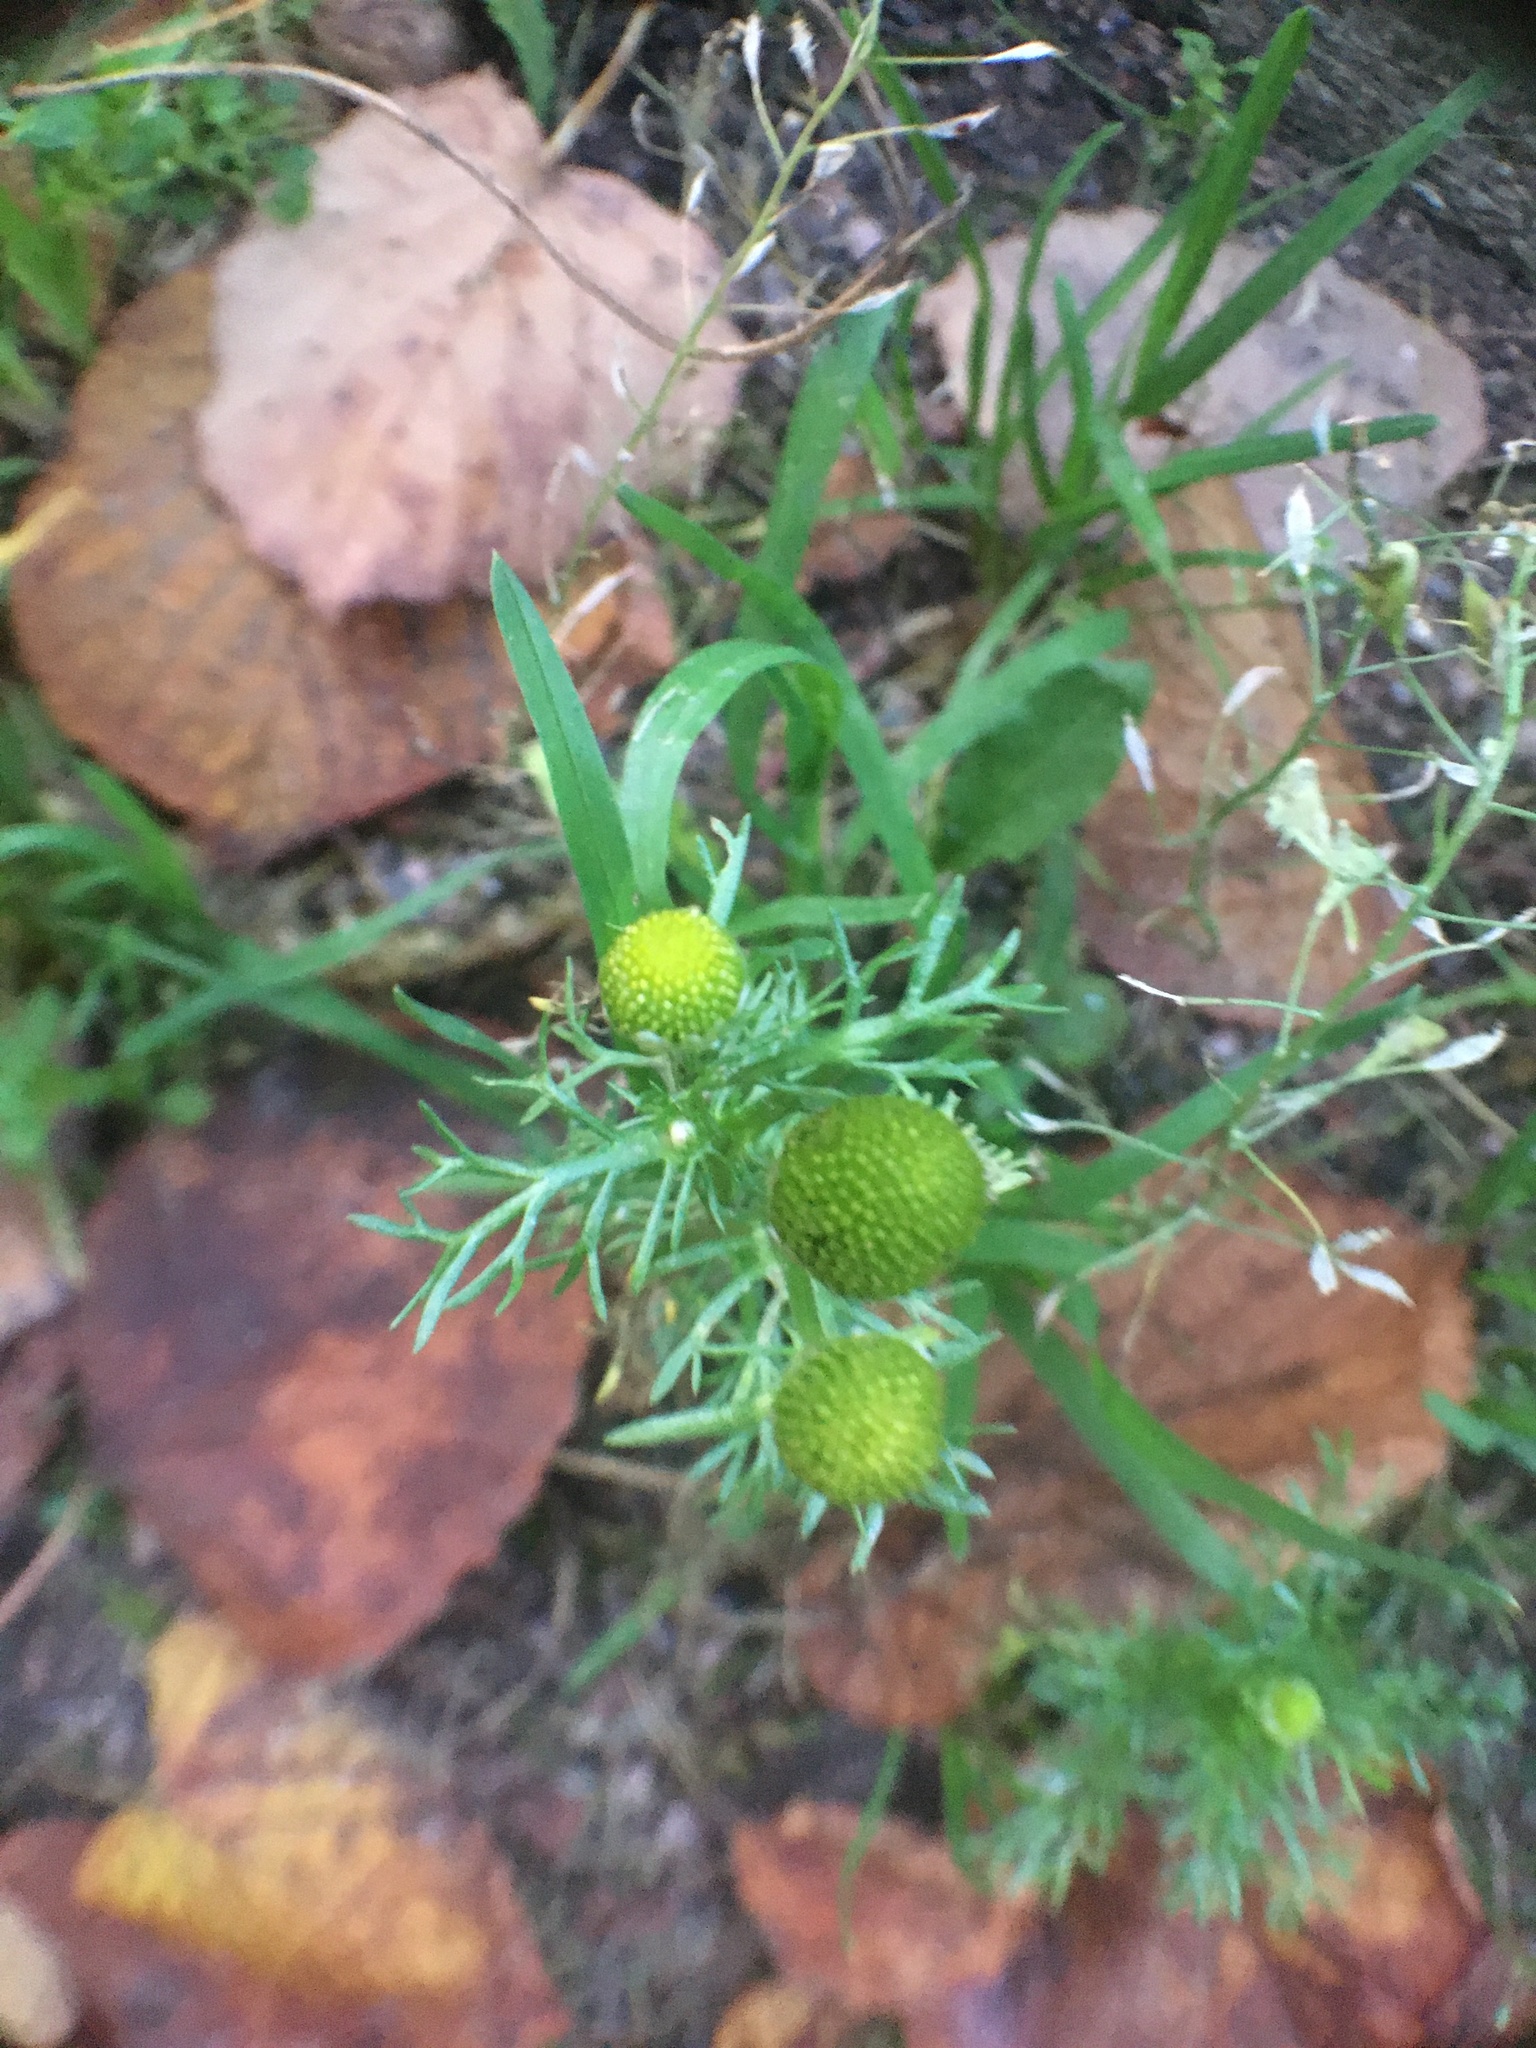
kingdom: Plantae
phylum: Tracheophyta
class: Magnoliopsida
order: Asterales
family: Asteraceae
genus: Matricaria
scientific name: Matricaria discoidea
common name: Disc mayweed
